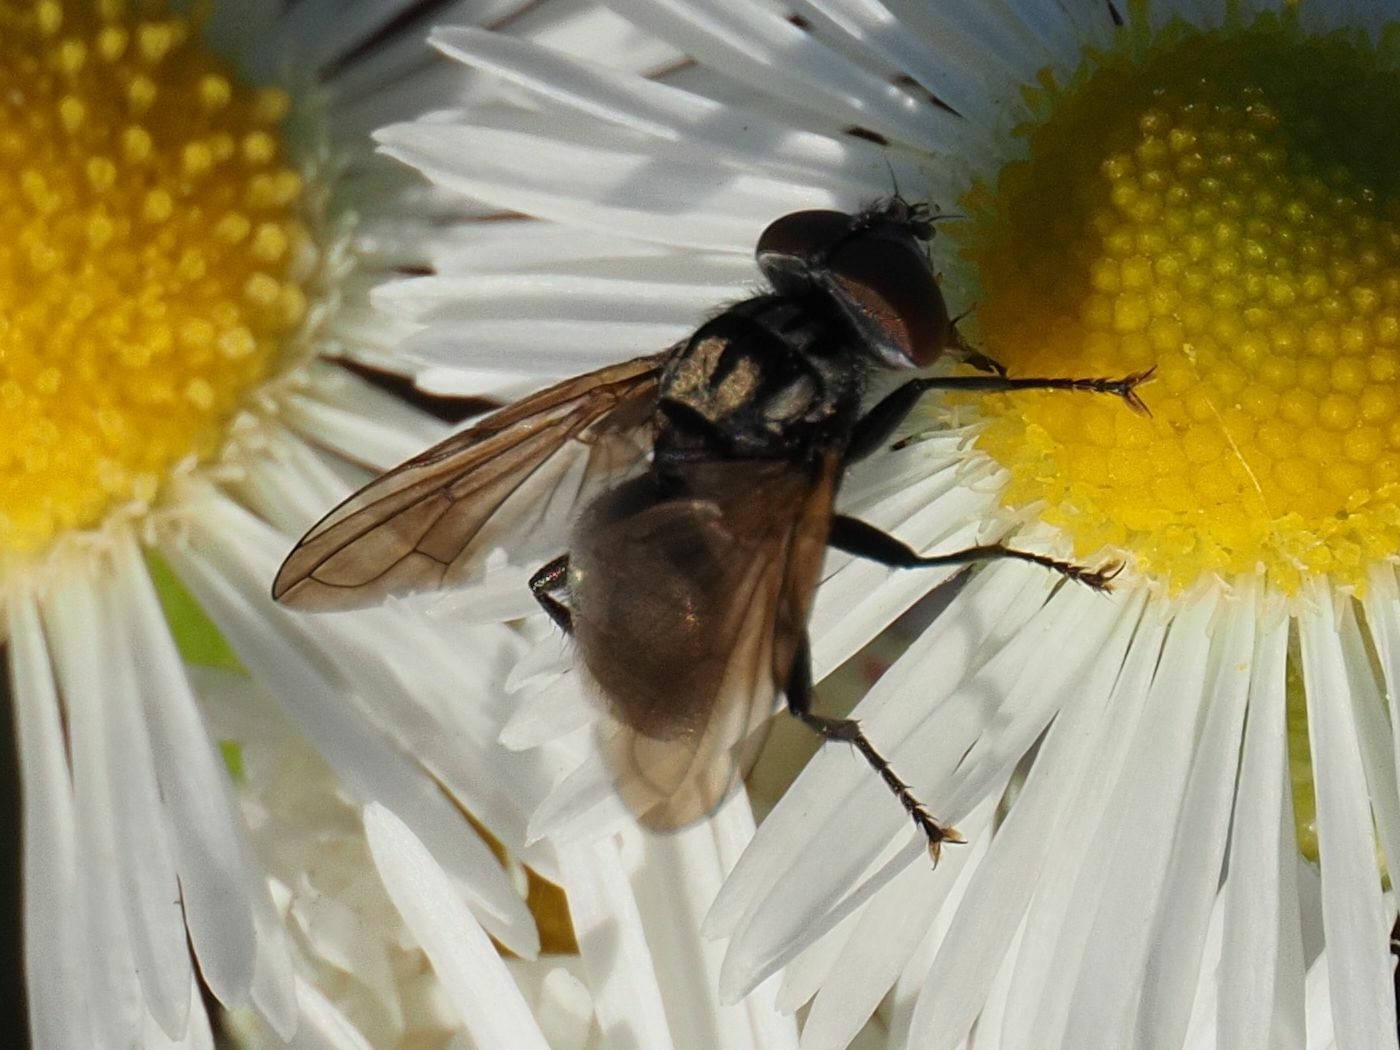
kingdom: Animalia
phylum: Arthropoda
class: Insecta
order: Diptera
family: Tachinidae
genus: Phasia
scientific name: Phasia obesa
